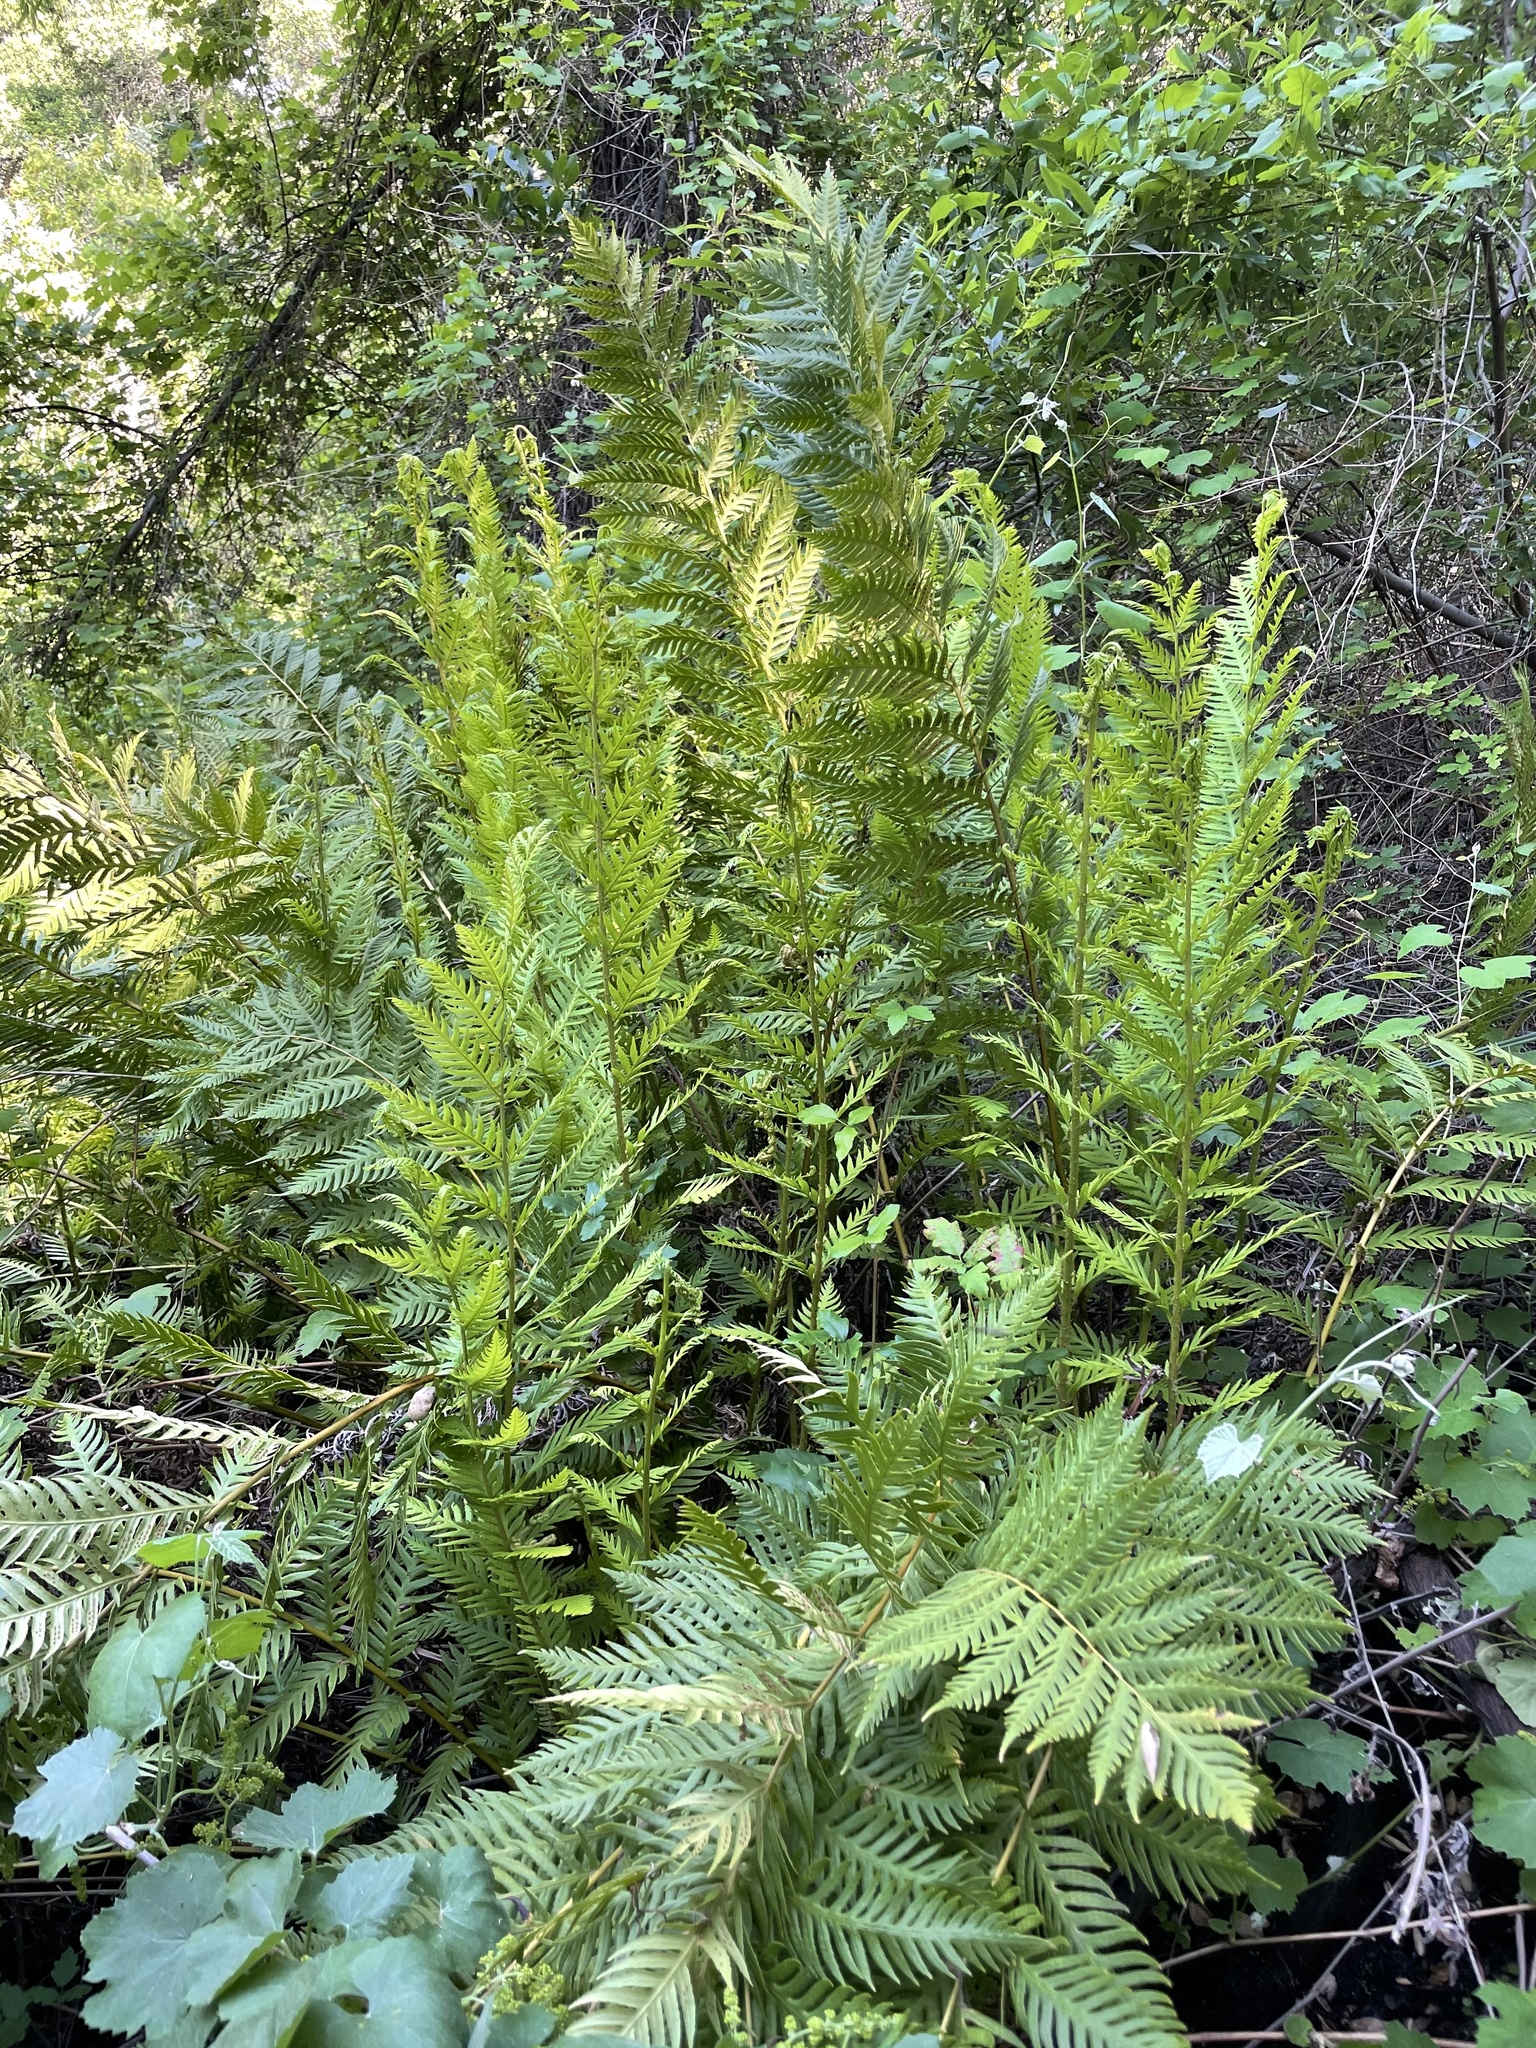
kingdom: Plantae
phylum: Tracheophyta
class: Polypodiopsida
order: Polypodiales
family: Blechnaceae
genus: Woodwardia
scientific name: Woodwardia fimbriata
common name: Giant chain fern
